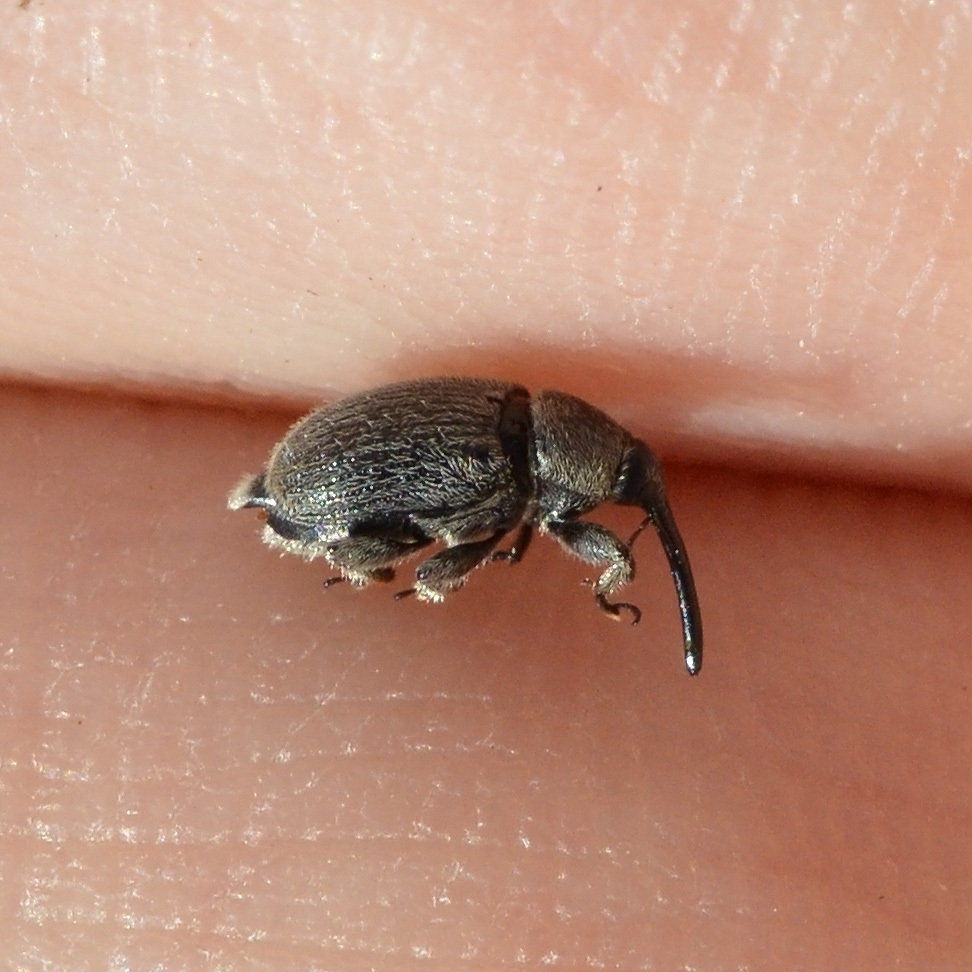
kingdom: Animalia
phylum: Arthropoda
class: Insecta
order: Coleoptera
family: Curculionidae
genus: Rhinusa
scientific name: Rhinusa asellus
